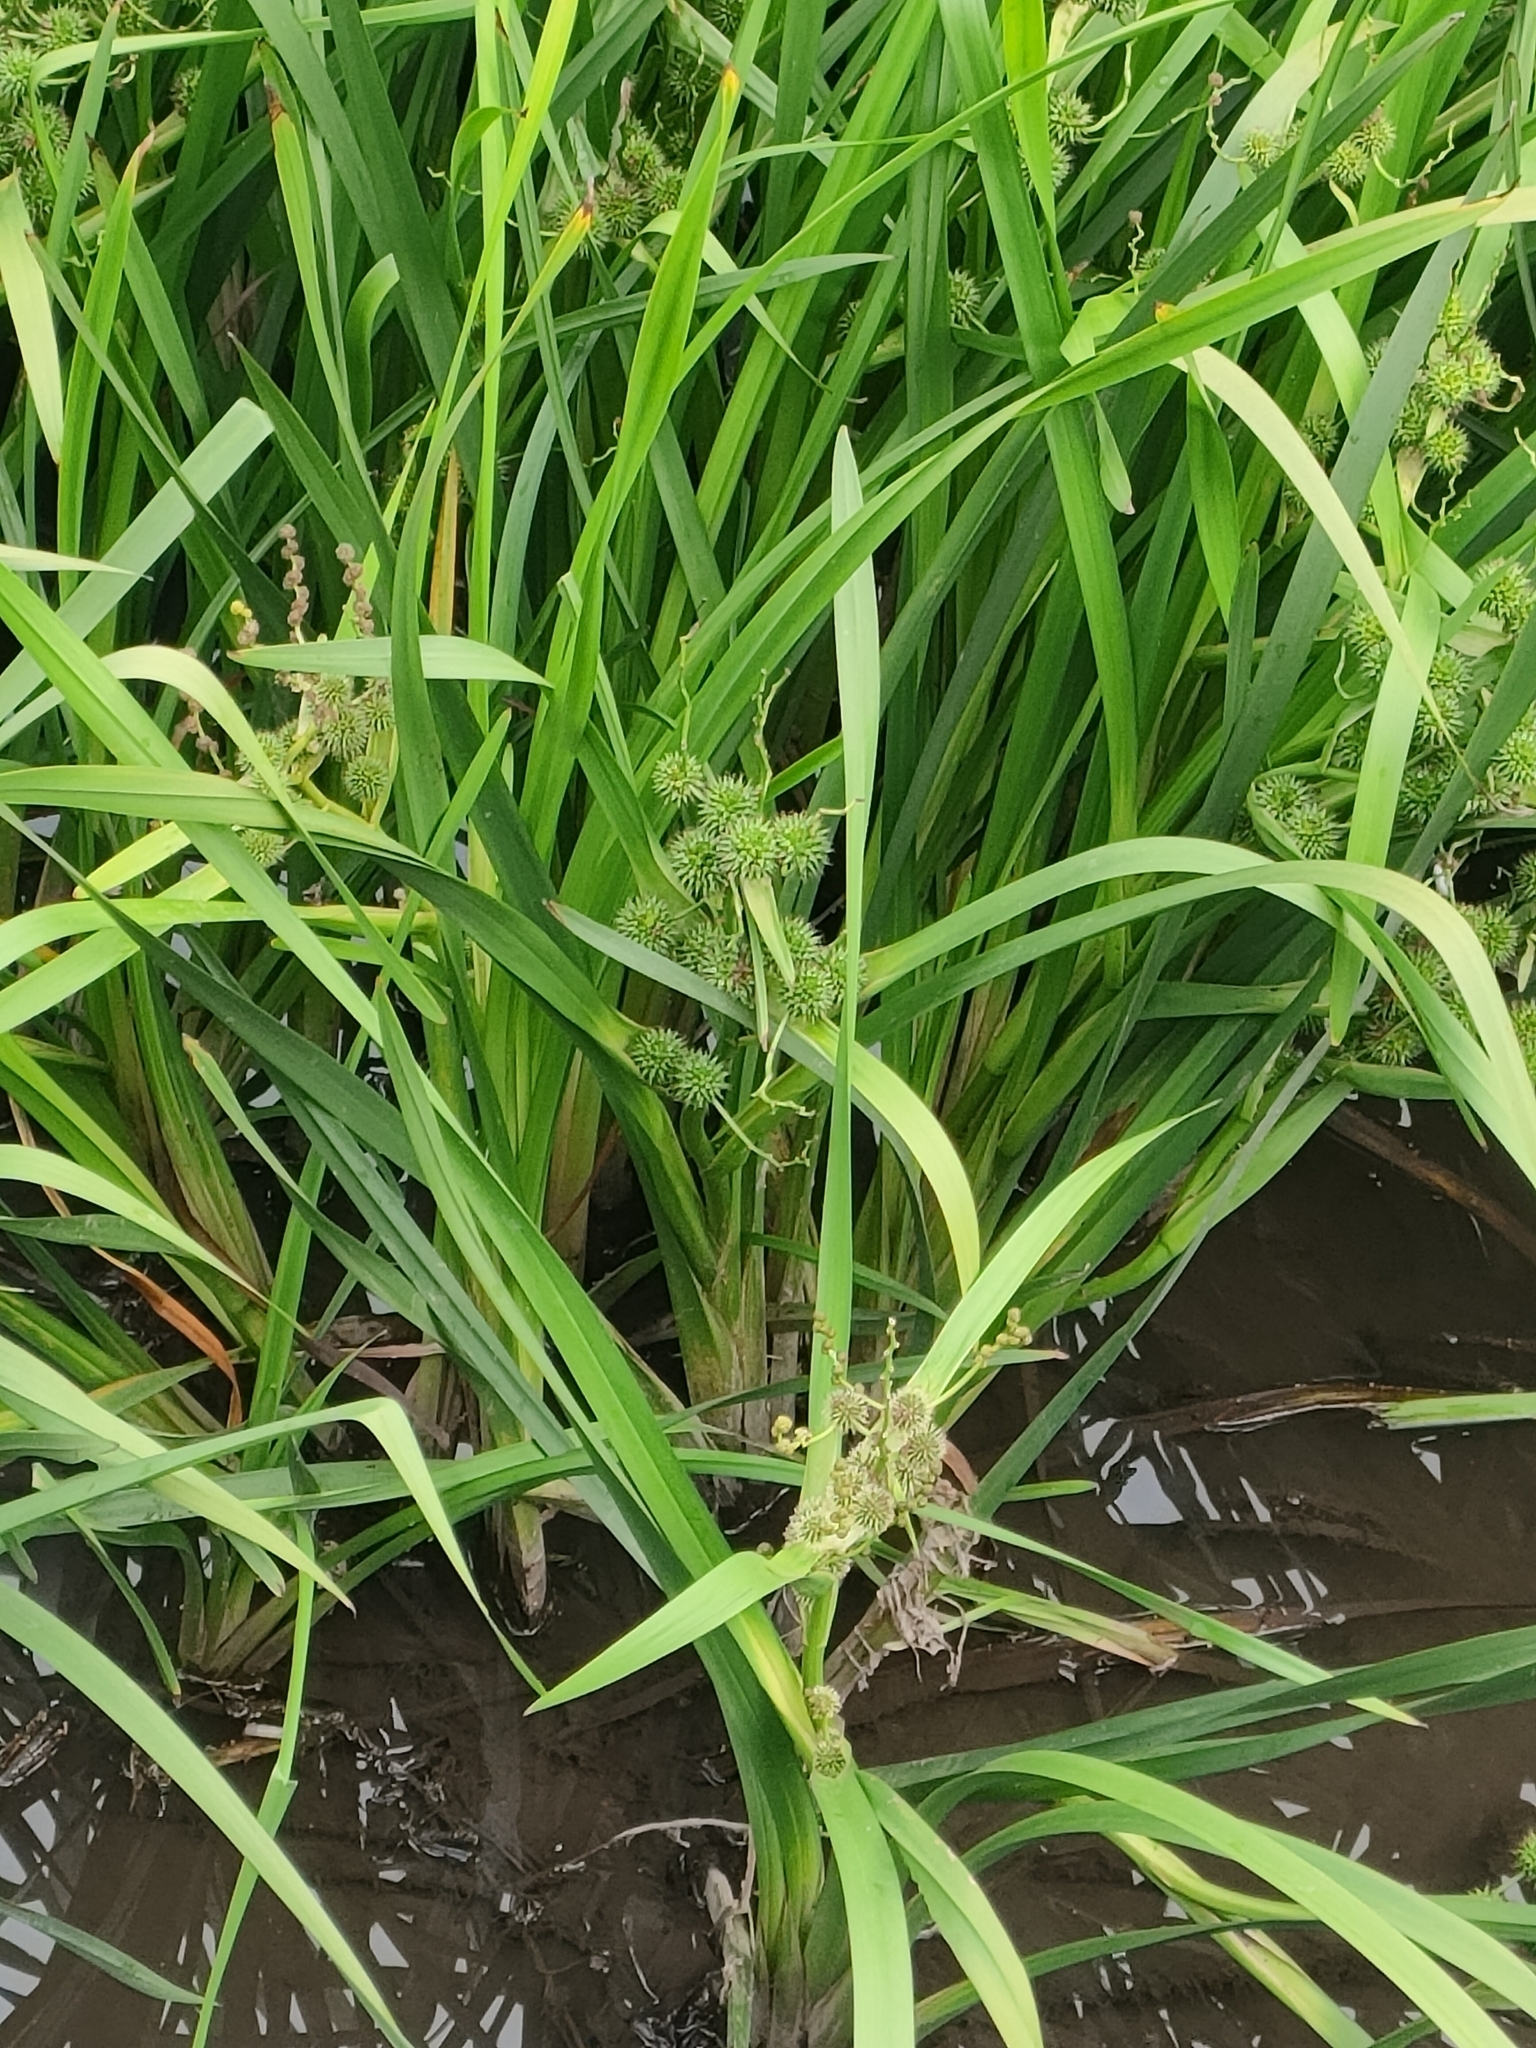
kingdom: Plantae
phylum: Tracheophyta
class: Liliopsida
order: Poales
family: Typhaceae
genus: Sparganium
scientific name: Sparganium erectum
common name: Branched bur-reed
